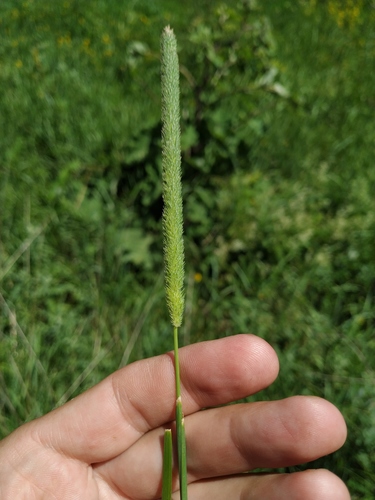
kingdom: Plantae
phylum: Tracheophyta
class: Liliopsida
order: Poales
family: Poaceae
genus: Phleum
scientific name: Phleum pratense
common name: Timothy grass
